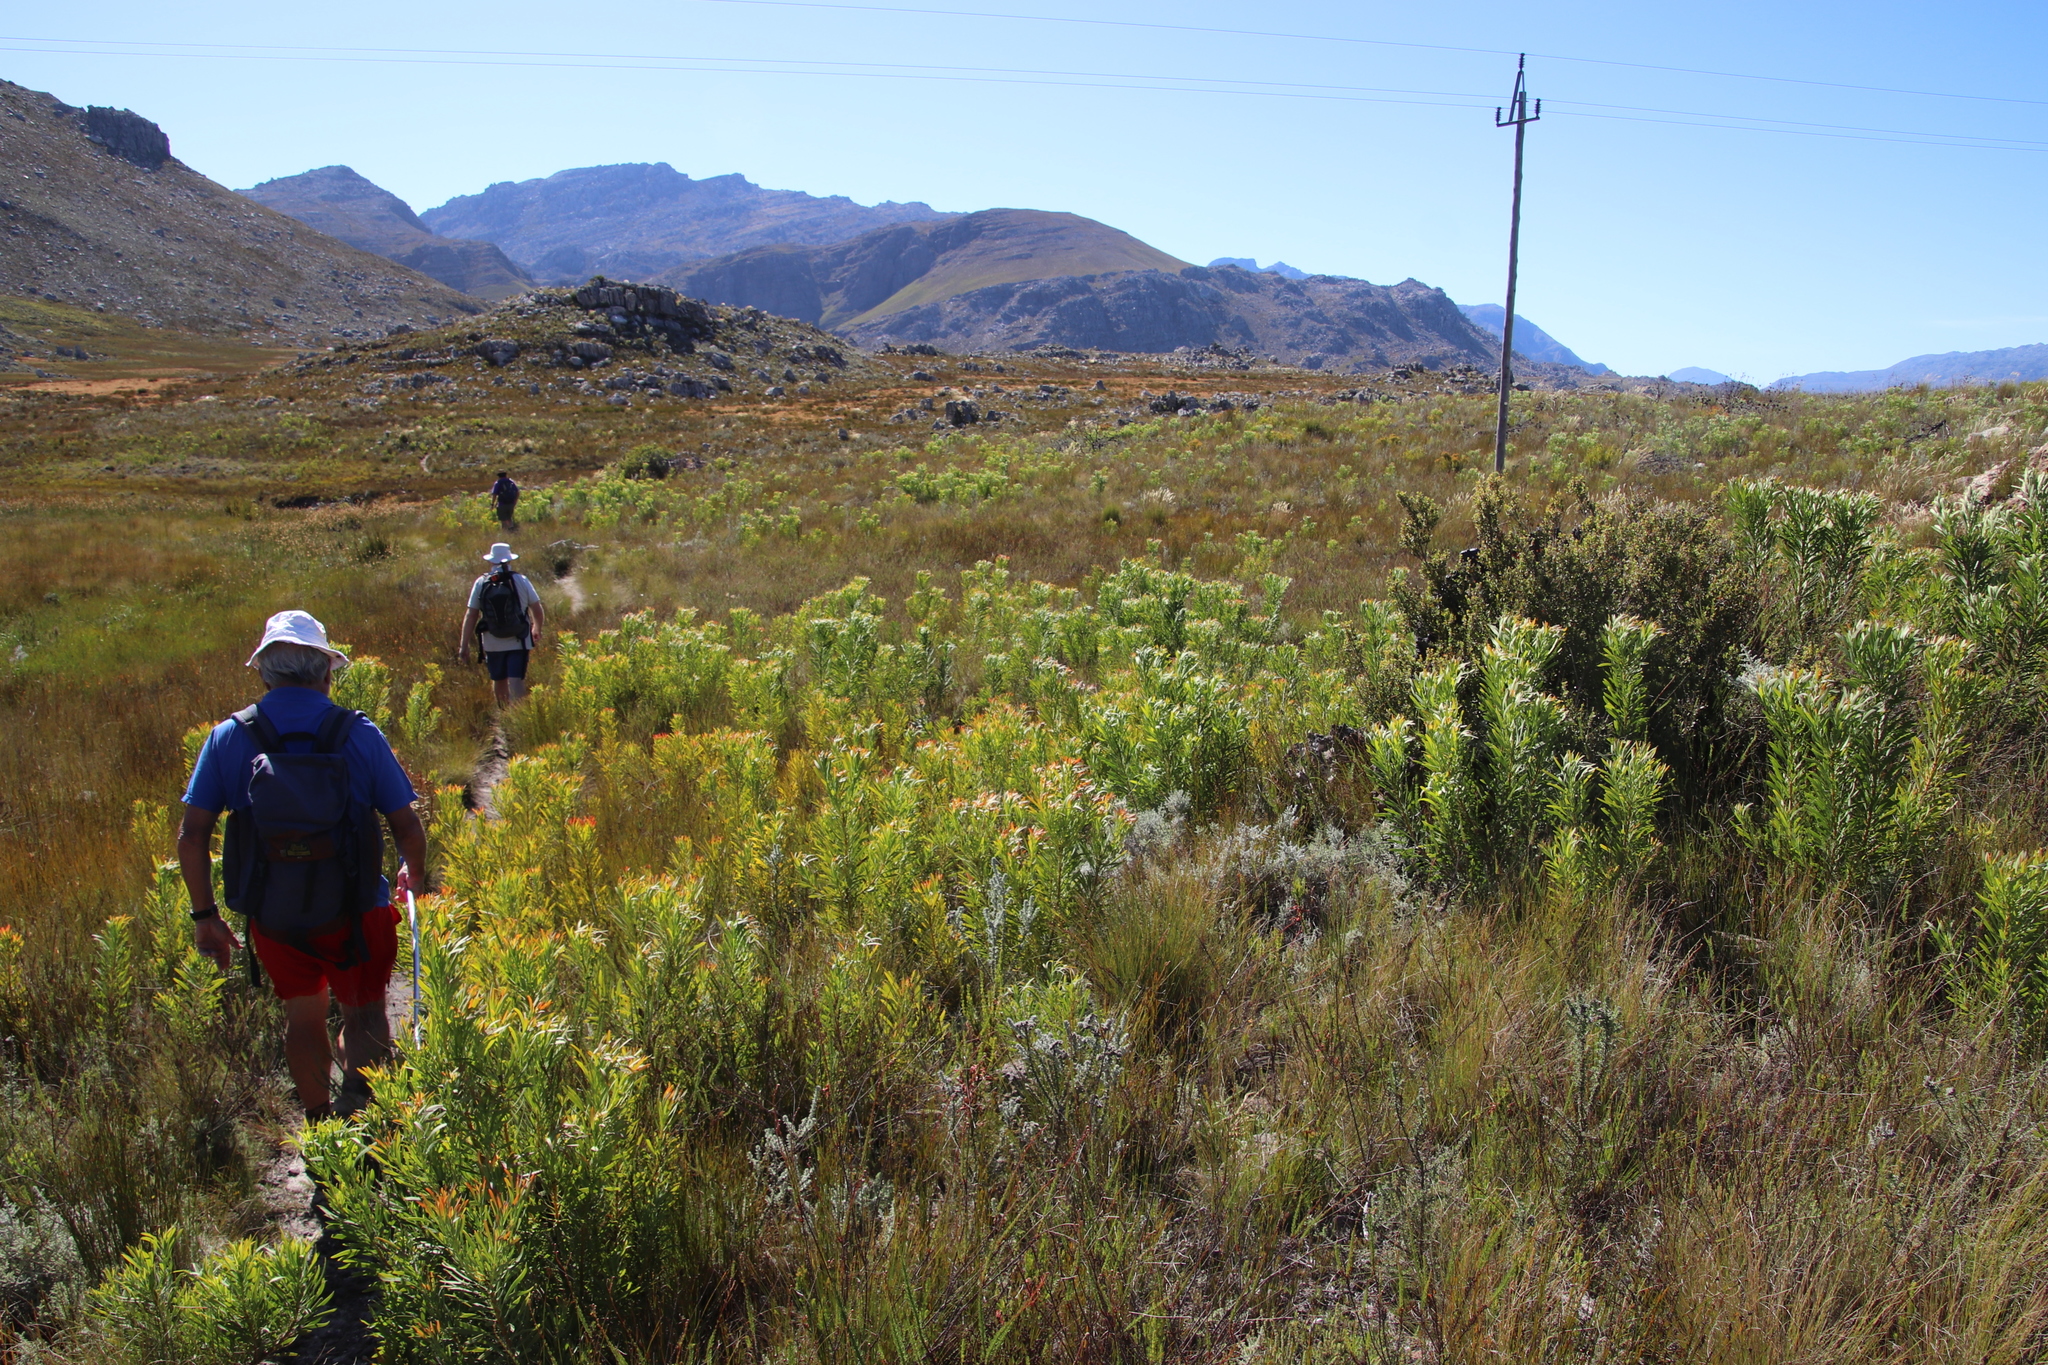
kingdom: Plantae
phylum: Tracheophyta
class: Magnoliopsida
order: Proteales
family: Proteaceae
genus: Protea
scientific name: Protea repens
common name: Sugarbush
